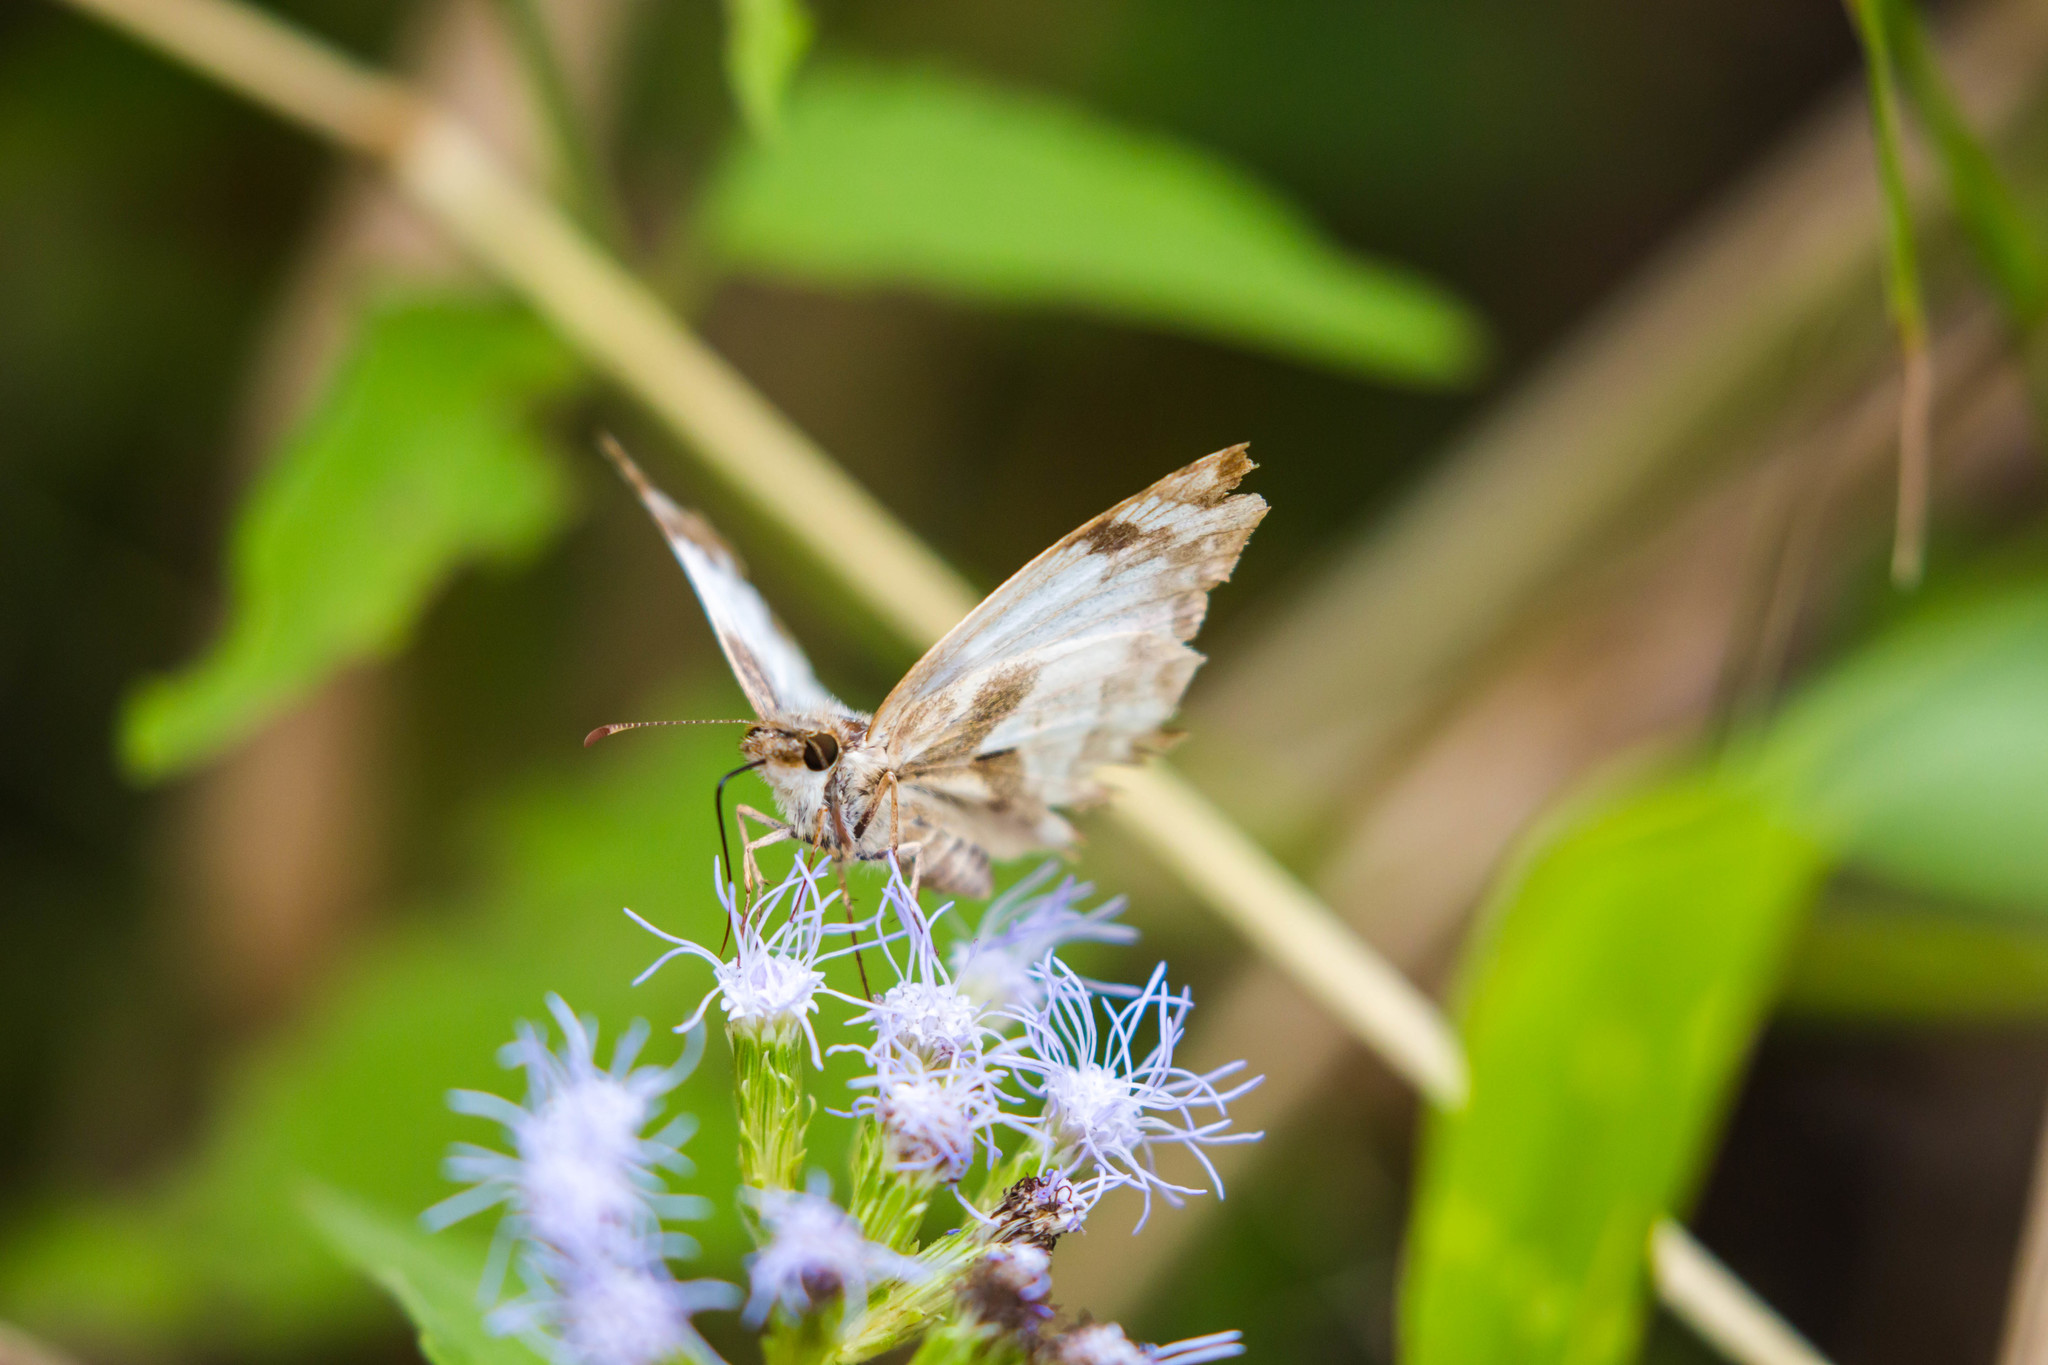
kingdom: Animalia
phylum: Arthropoda
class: Insecta
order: Lepidoptera
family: Hesperiidae
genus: Heliopetes
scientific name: Heliopetes laviana
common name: Laviana white-skipper
